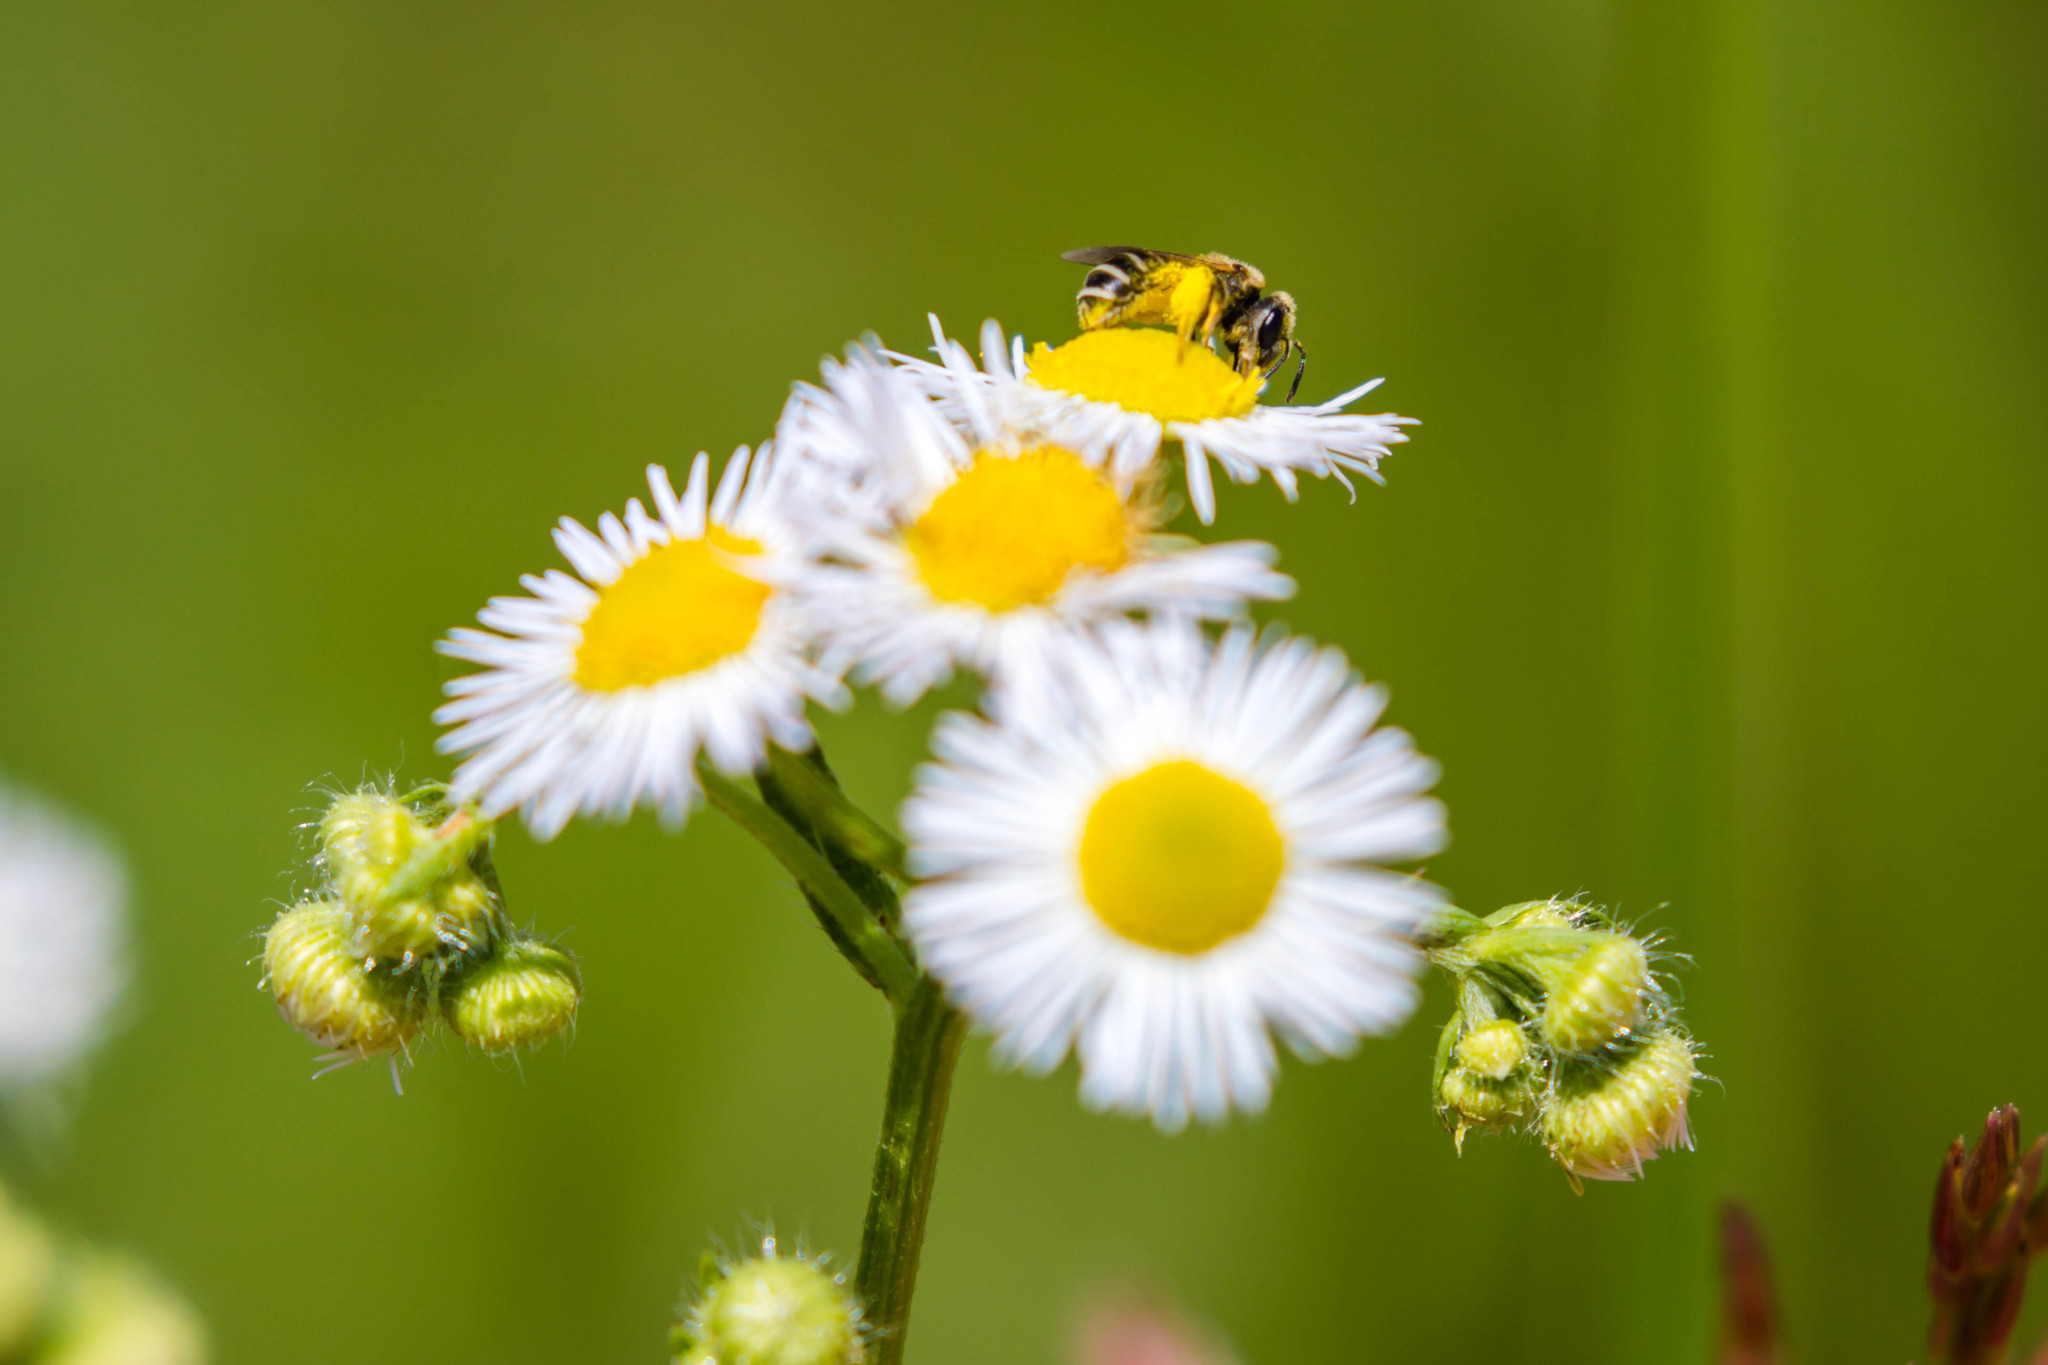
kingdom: Animalia
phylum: Arthropoda
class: Insecta
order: Hymenoptera
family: Halictidae
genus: Halictus
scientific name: Halictus ligatus
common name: Ligated furrow bee
